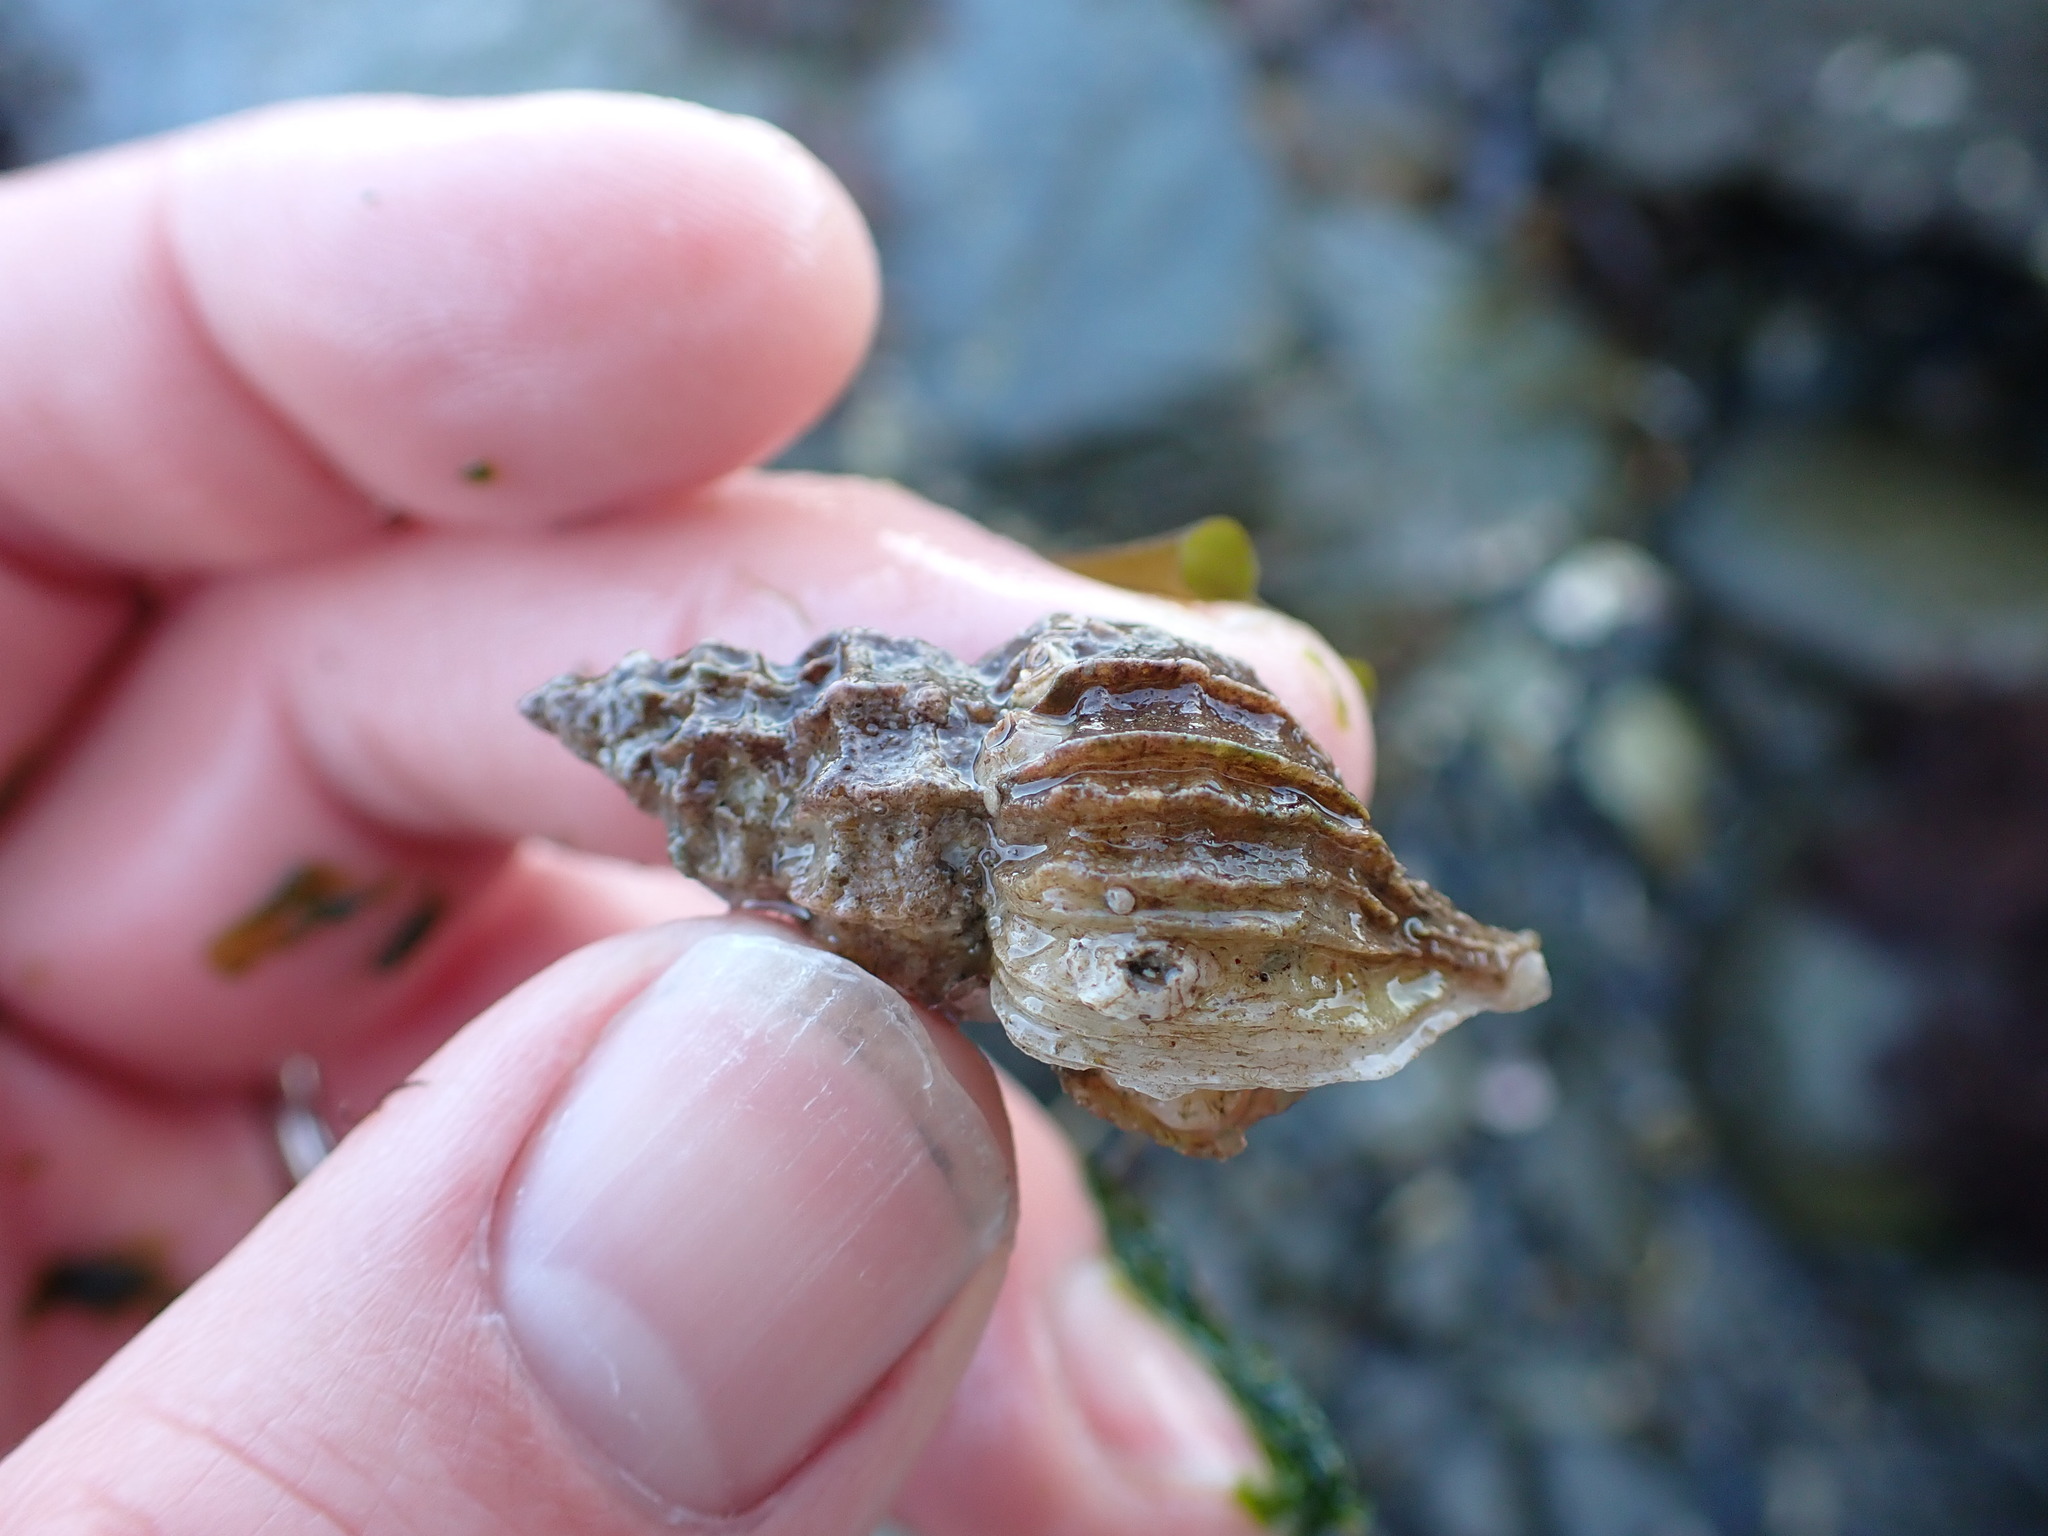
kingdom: Animalia
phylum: Mollusca
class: Gastropoda
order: Neogastropoda
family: Muricidae
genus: Nucella
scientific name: Nucella lamellosa
